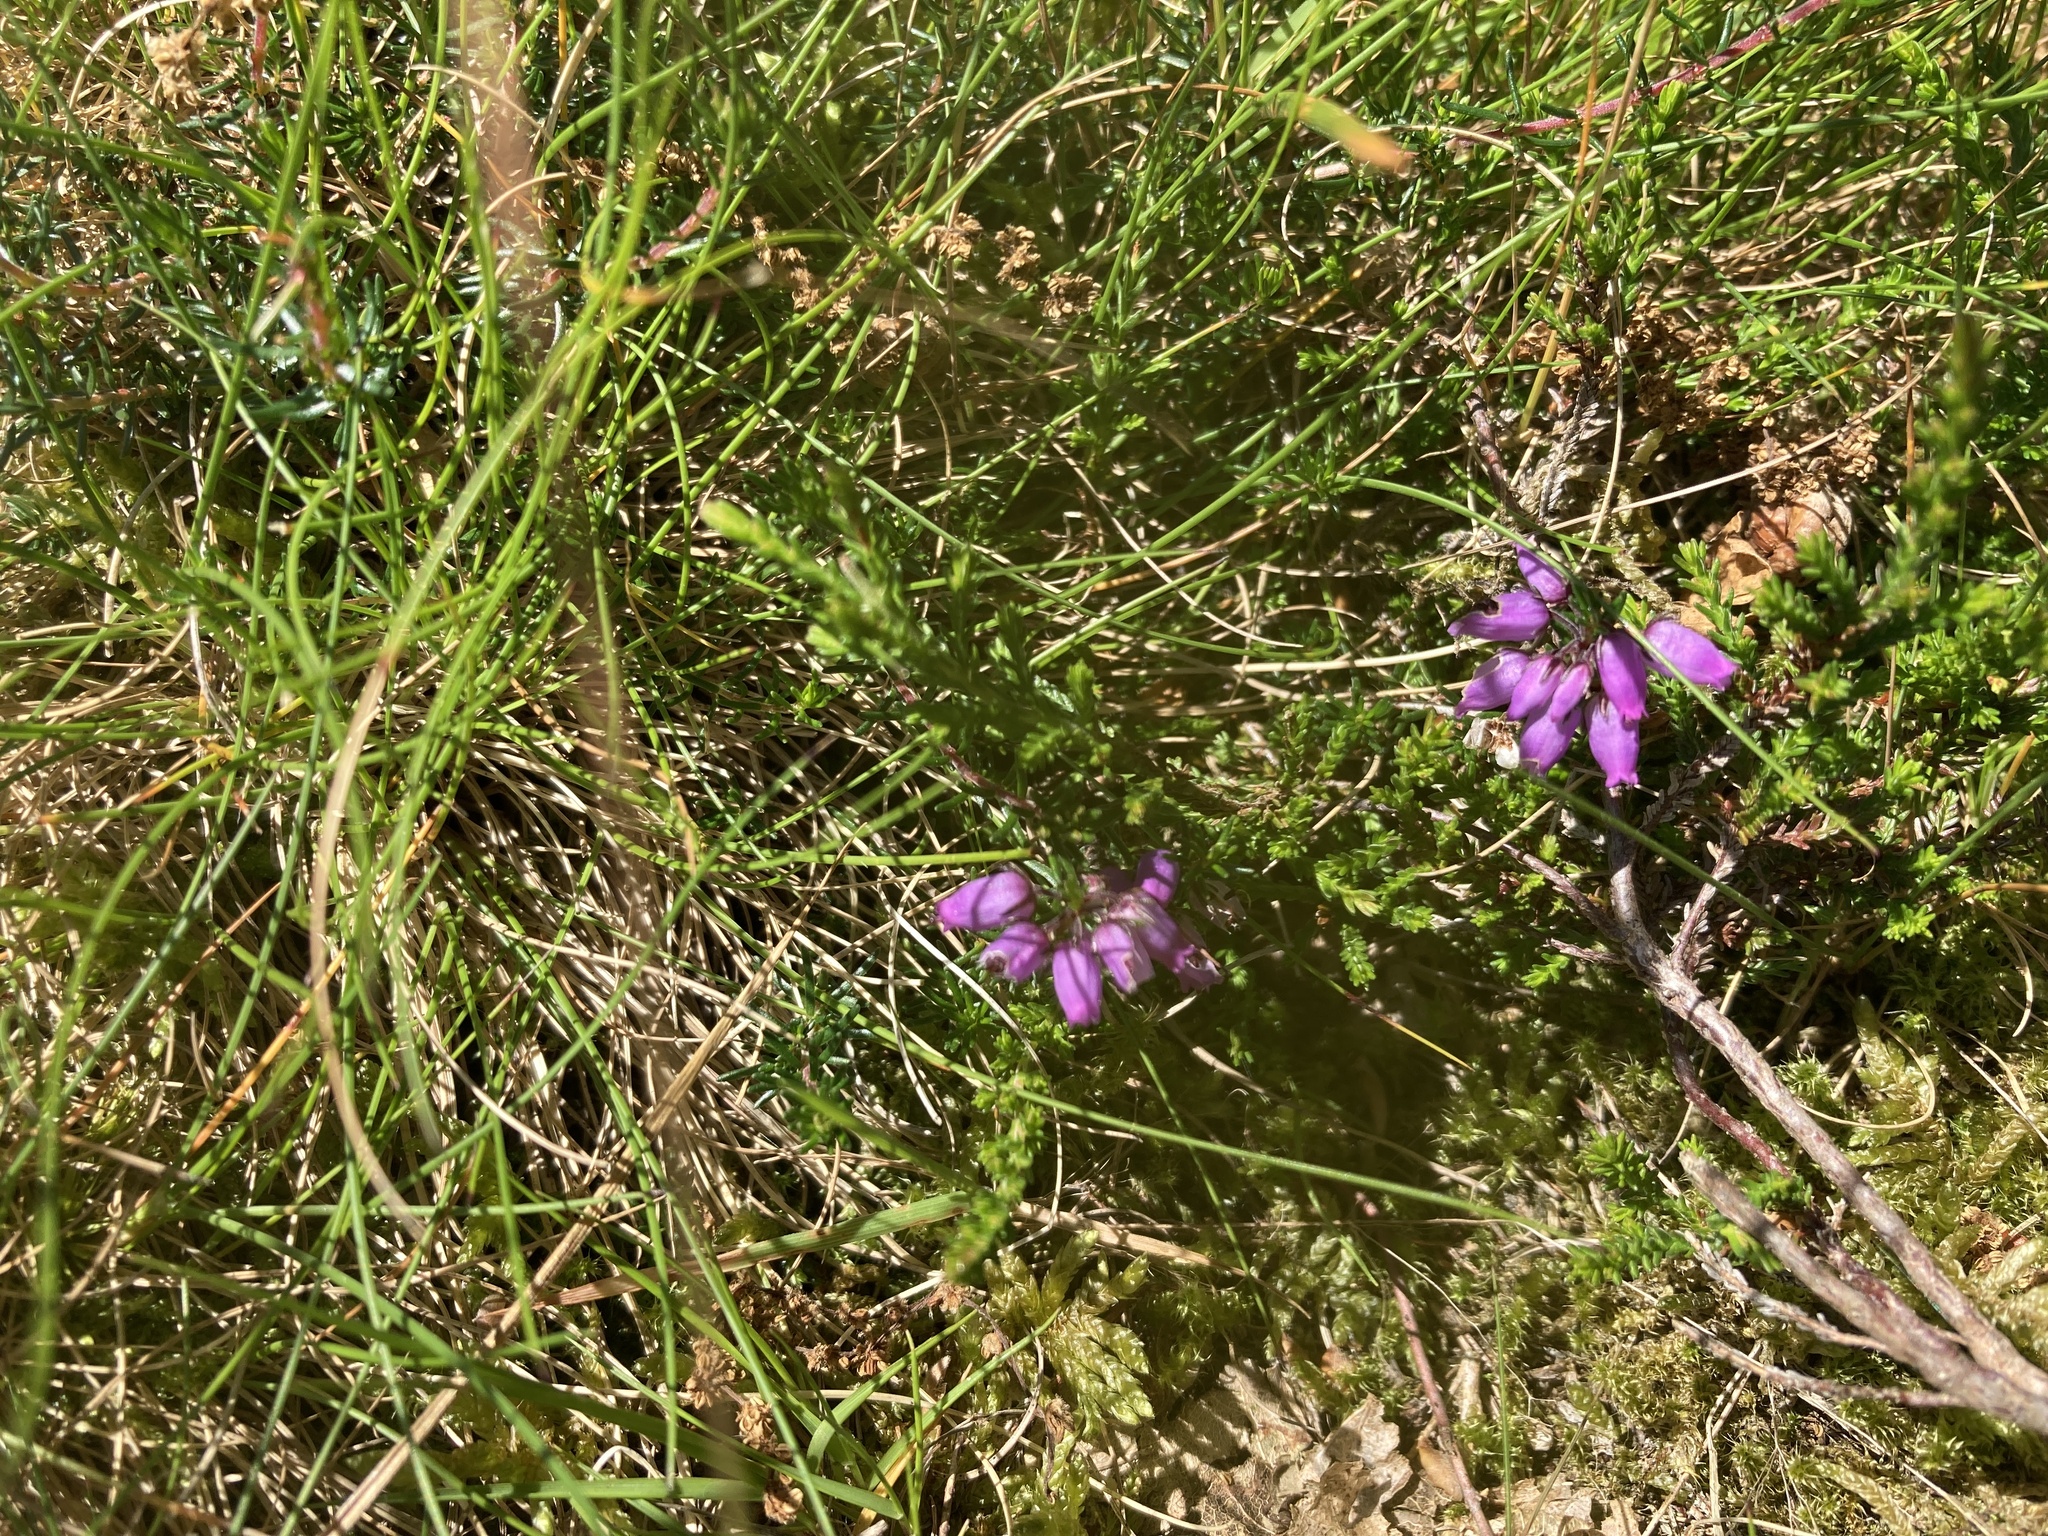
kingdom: Plantae
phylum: Tracheophyta
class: Magnoliopsida
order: Ericales
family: Ericaceae
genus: Erica
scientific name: Erica cinerea
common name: Bell heather
